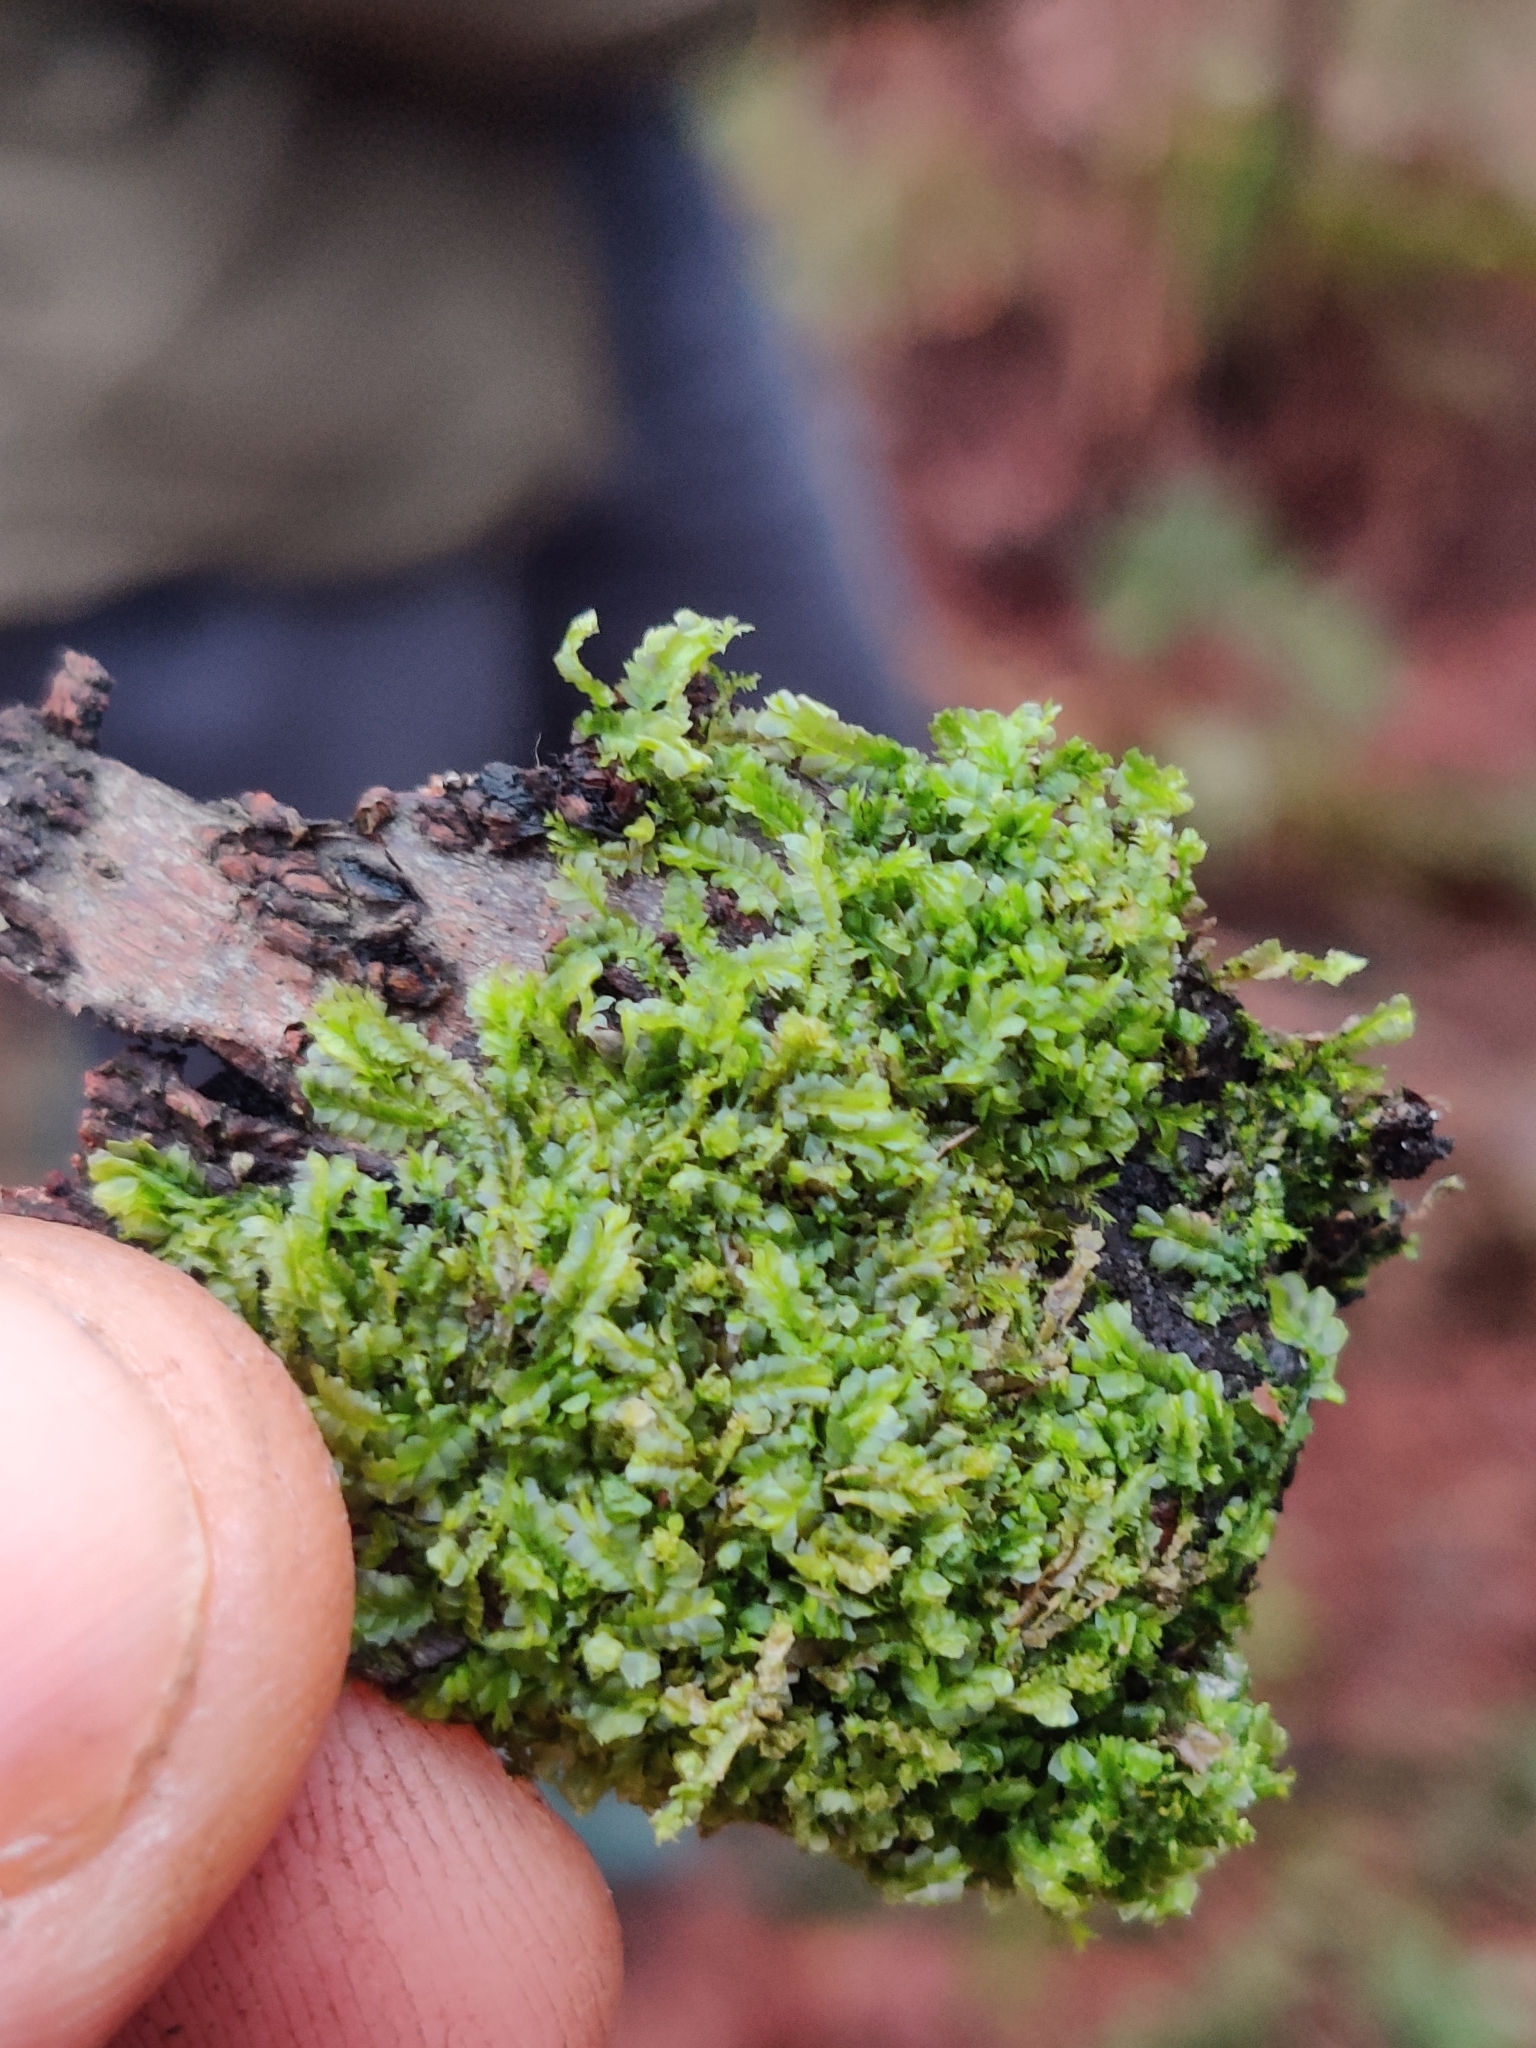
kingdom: Plantae
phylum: Marchantiophyta
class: Jungermanniopsida
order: Jungermanniales
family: Lophocoleaceae
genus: Lophocolea
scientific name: Lophocolea heterophylla
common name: Variable-leaved crestwort
